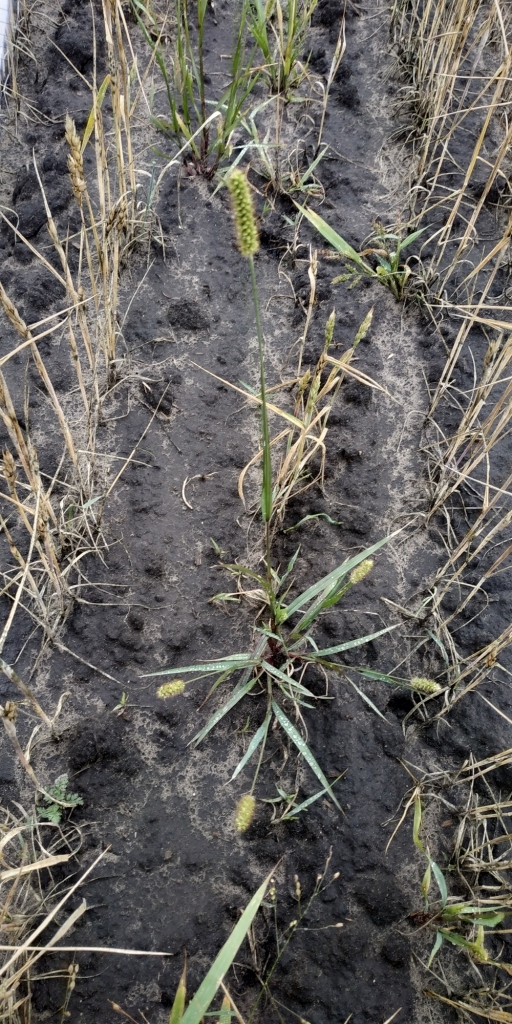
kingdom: Plantae
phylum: Tracheophyta
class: Liliopsida
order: Poales
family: Poaceae
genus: Setaria
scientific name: Setaria pumila
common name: Yellow bristle-grass
